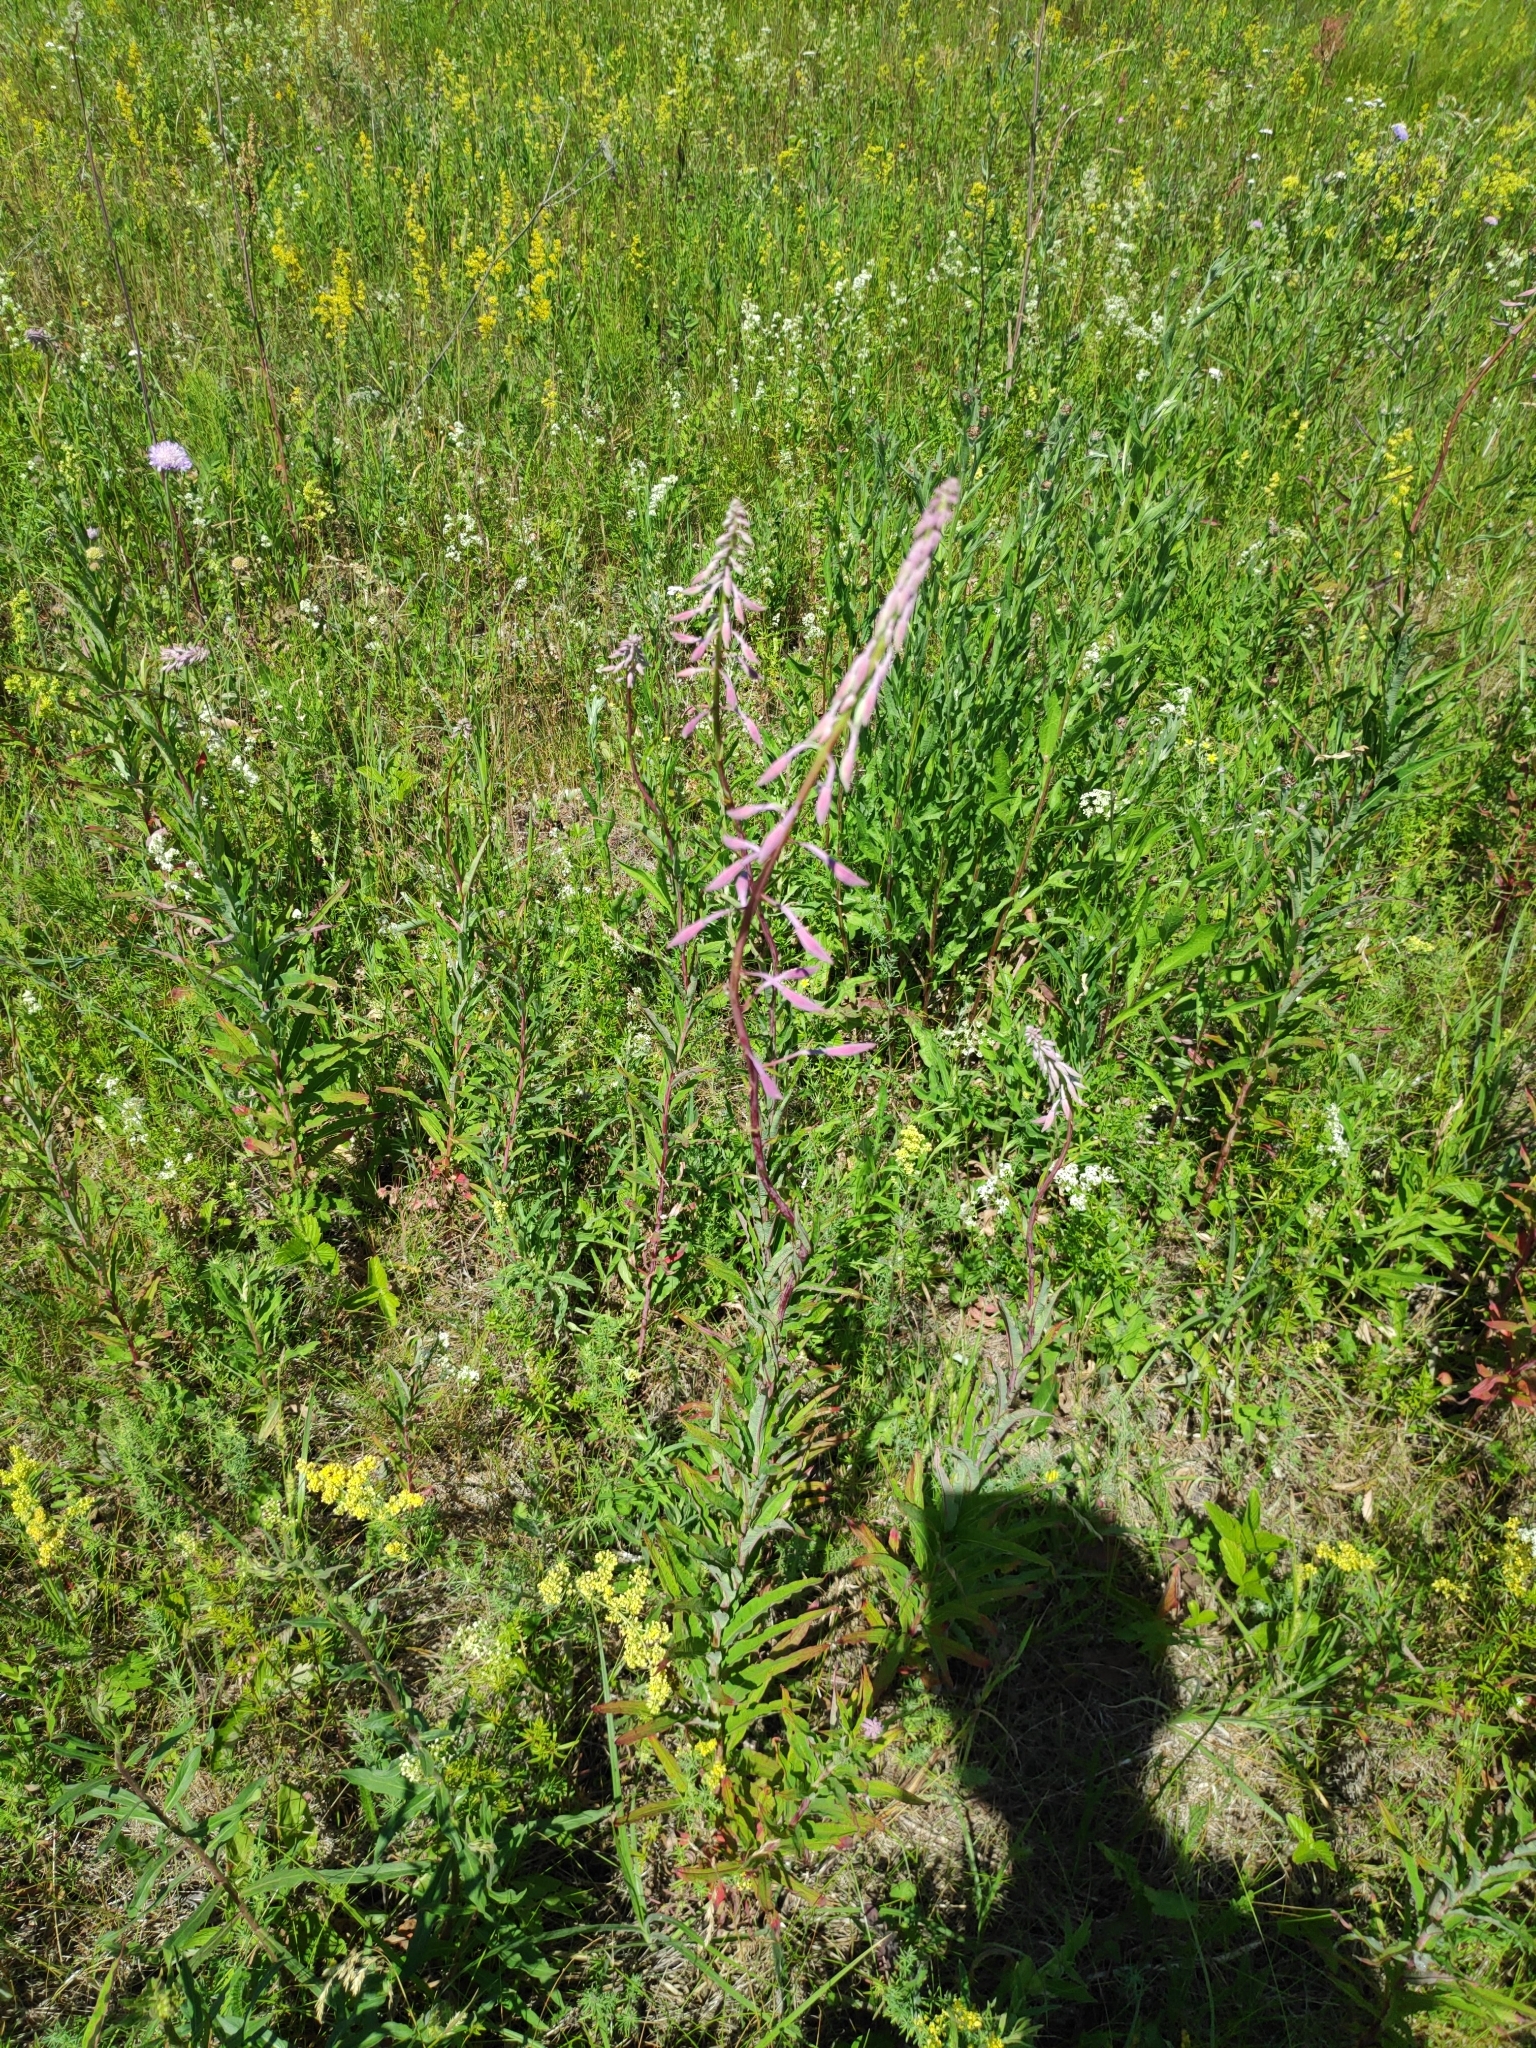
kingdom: Plantae
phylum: Tracheophyta
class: Magnoliopsida
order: Myrtales
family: Onagraceae
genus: Chamaenerion
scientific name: Chamaenerion angustifolium
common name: Fireweed
